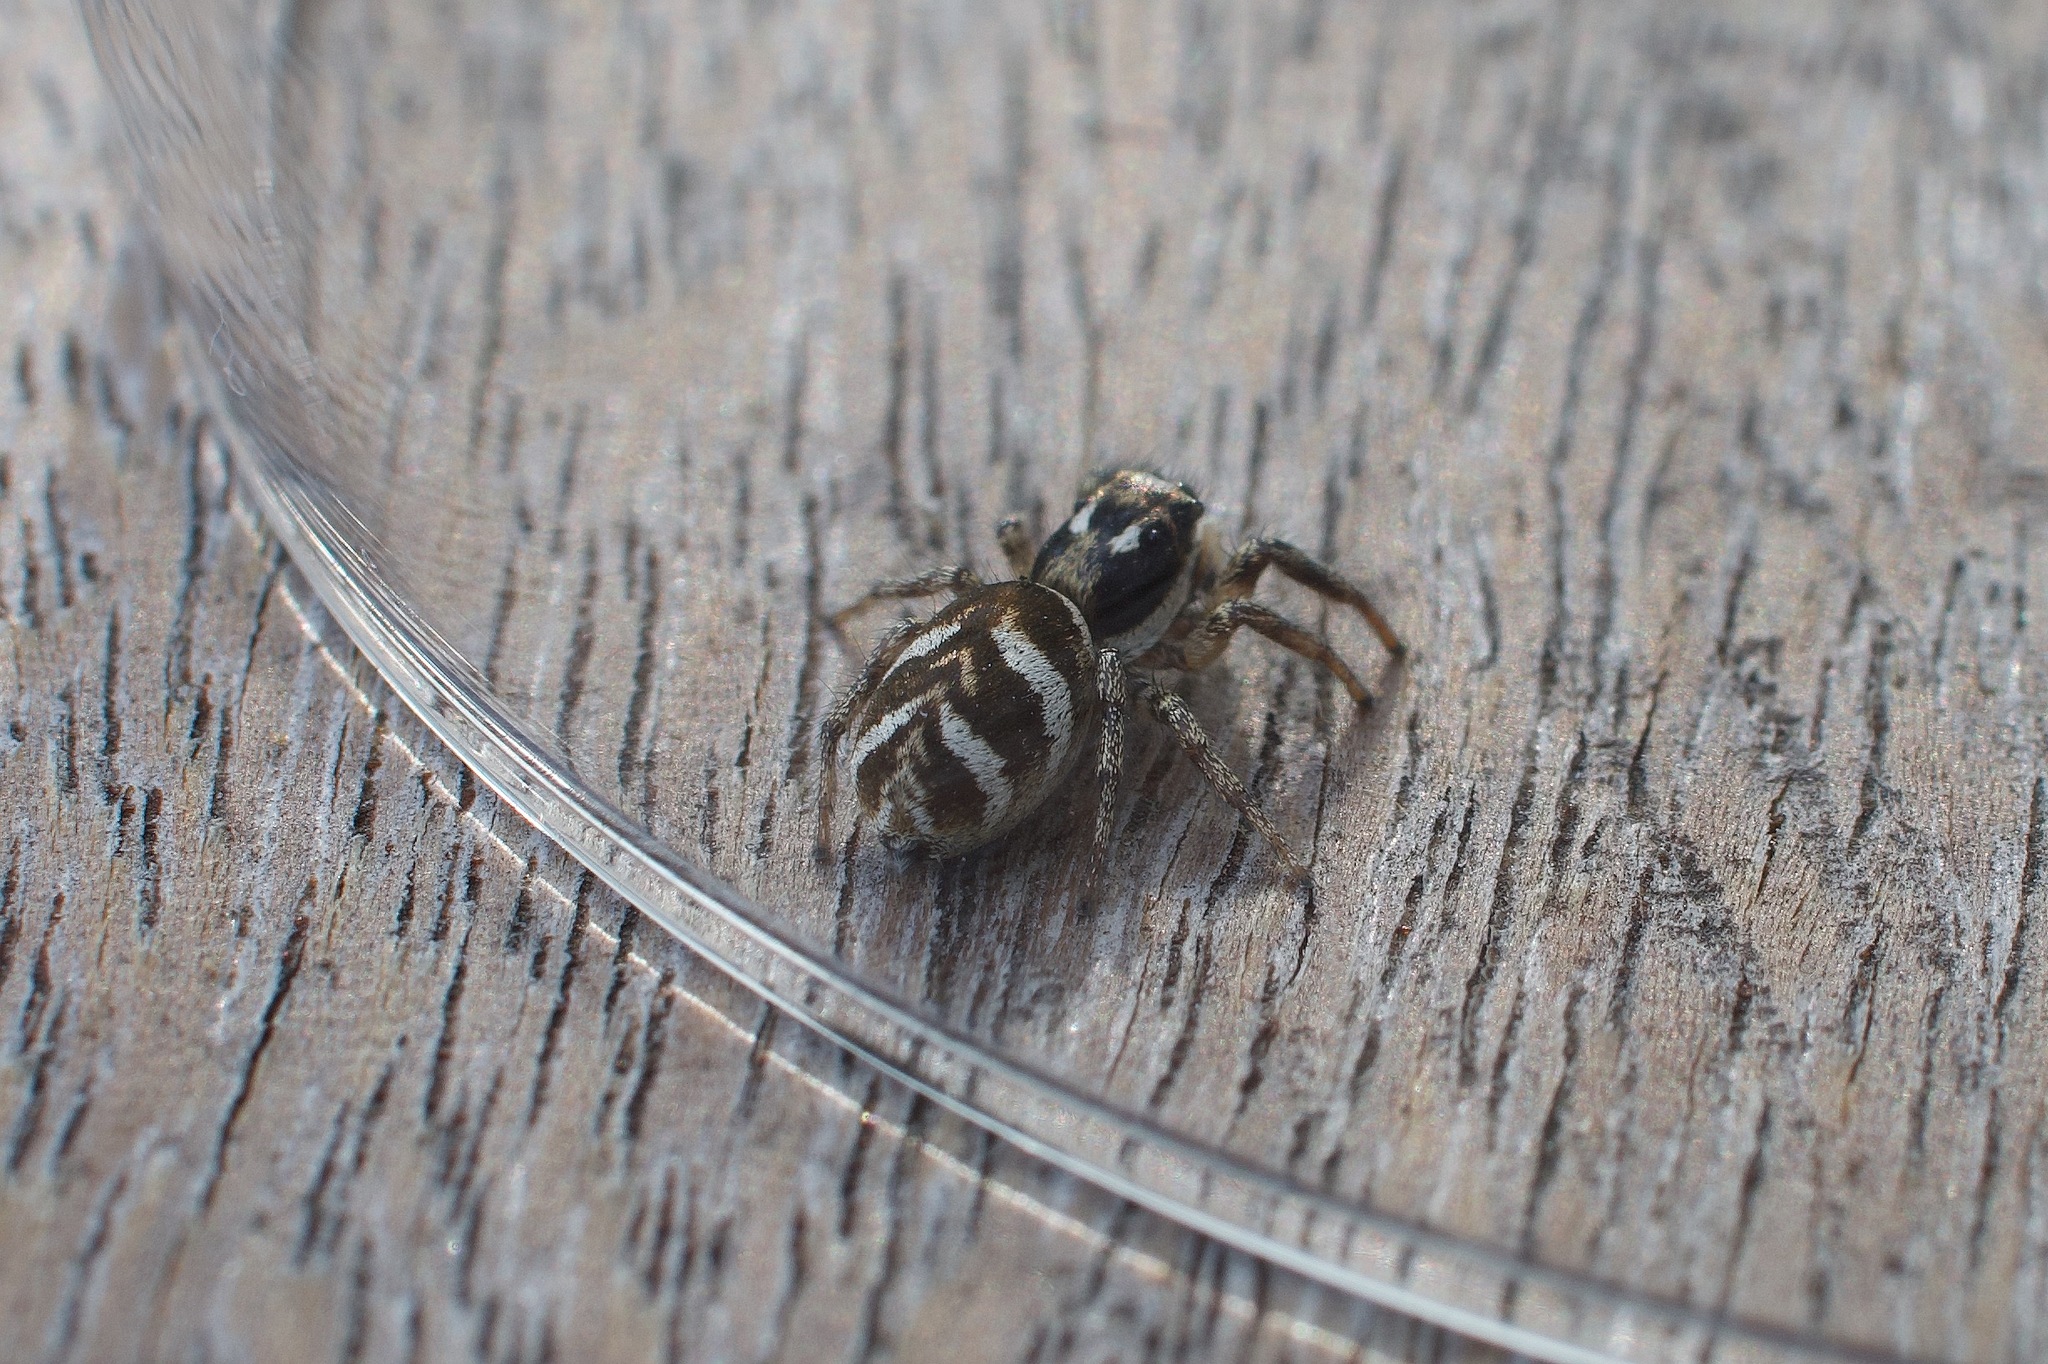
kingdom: Animalia
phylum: Arthropoda
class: Arachnida
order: Araneae
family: Salticidae
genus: Salticus
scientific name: Salticus scenicus
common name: Zebra jumper
